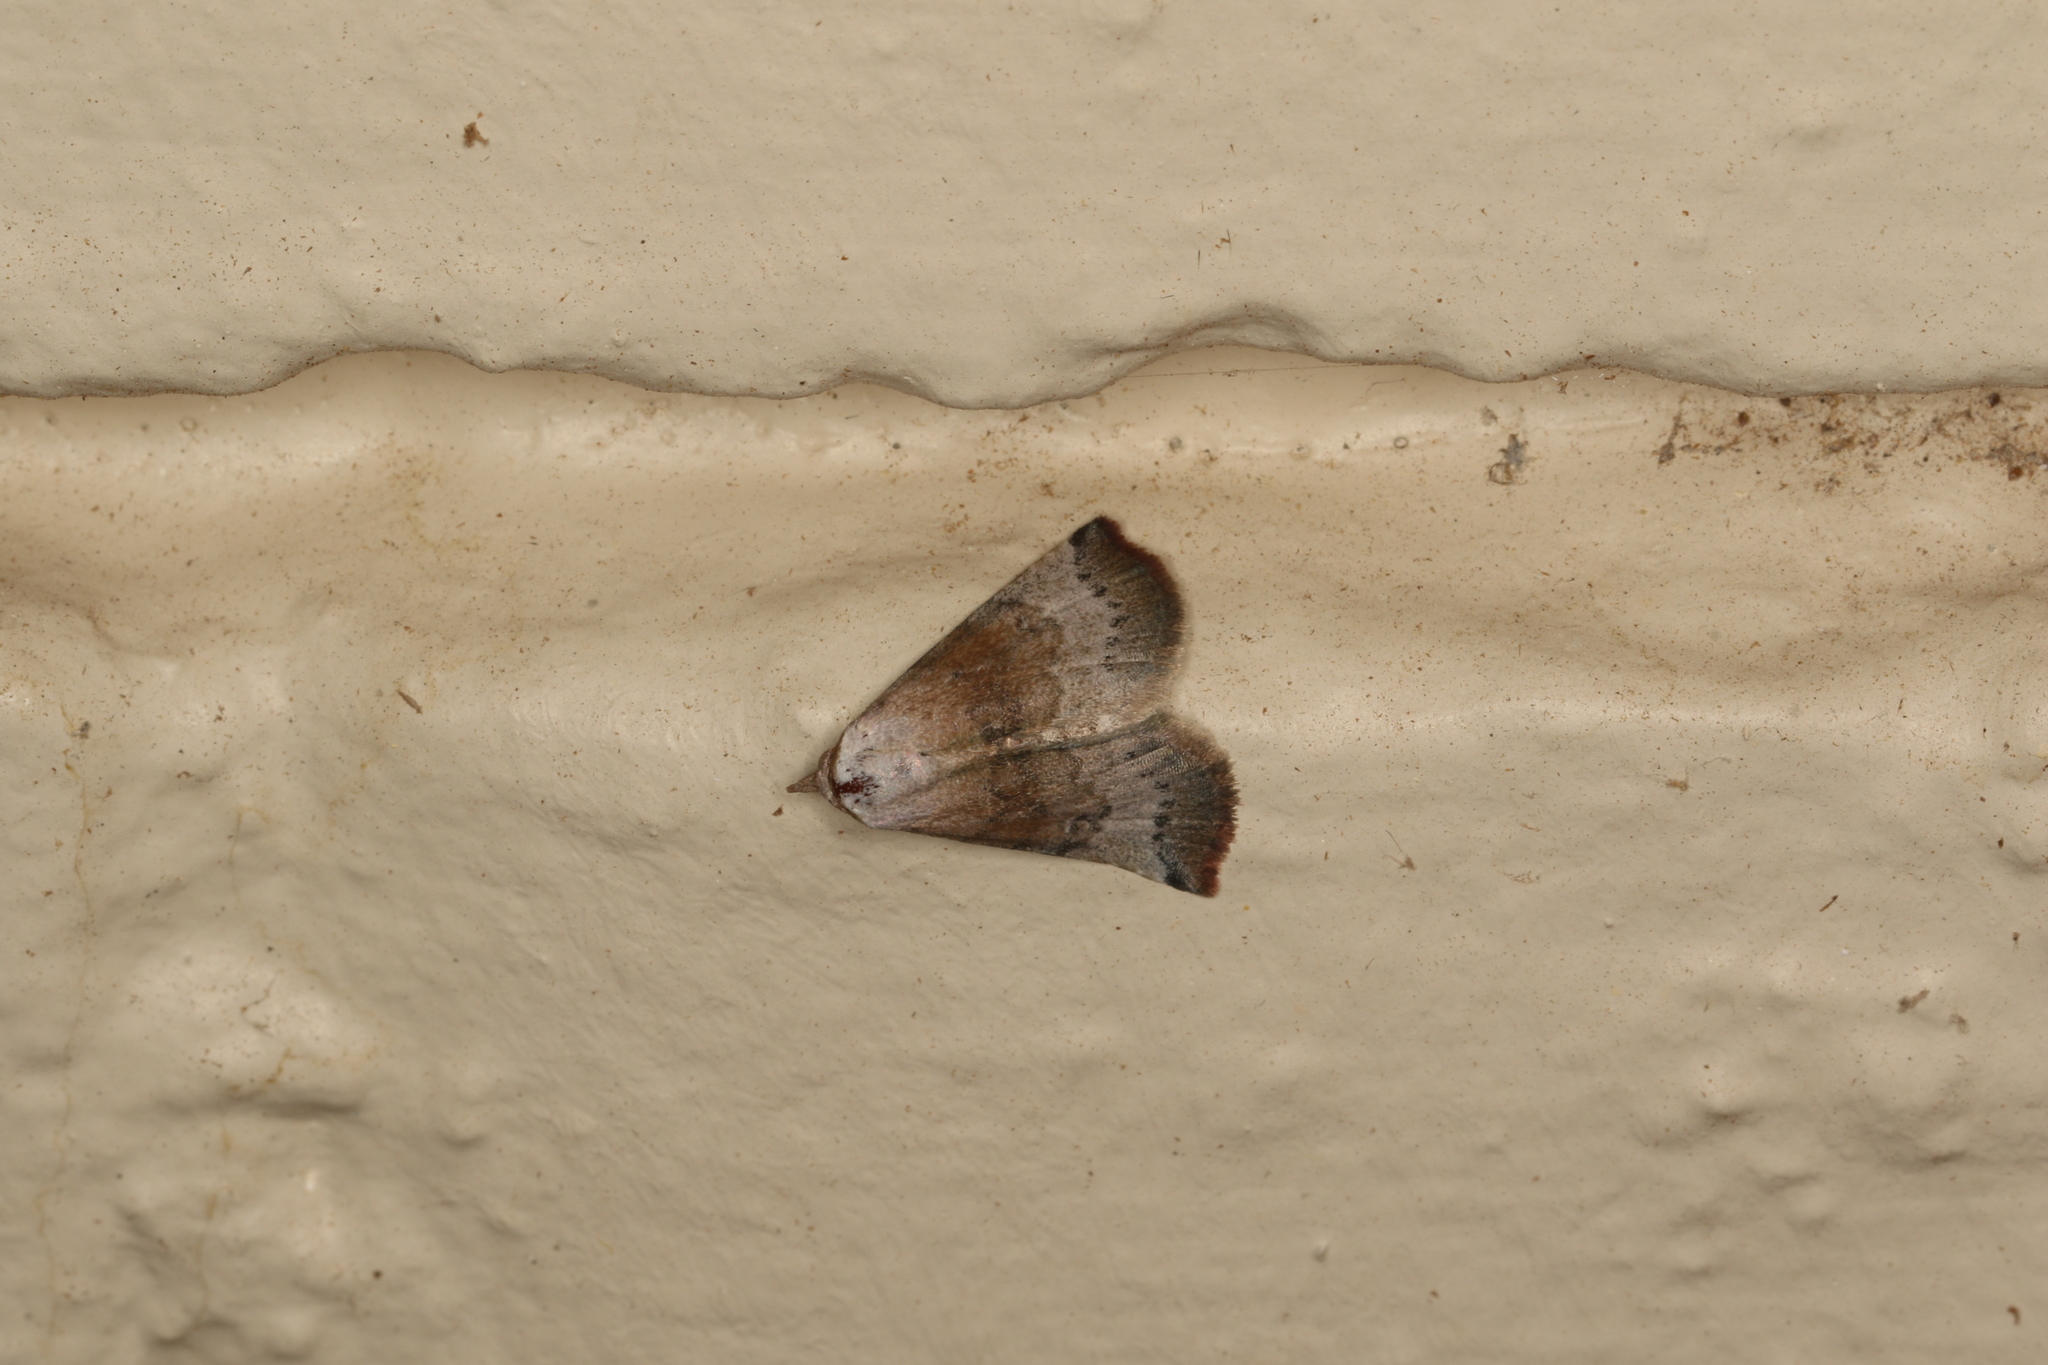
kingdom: Animalia
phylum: Arthropoda
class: Insecta
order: Lepidoptera
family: Noctuidae
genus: Mataeomera
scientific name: Mataeomera mesotaenia
